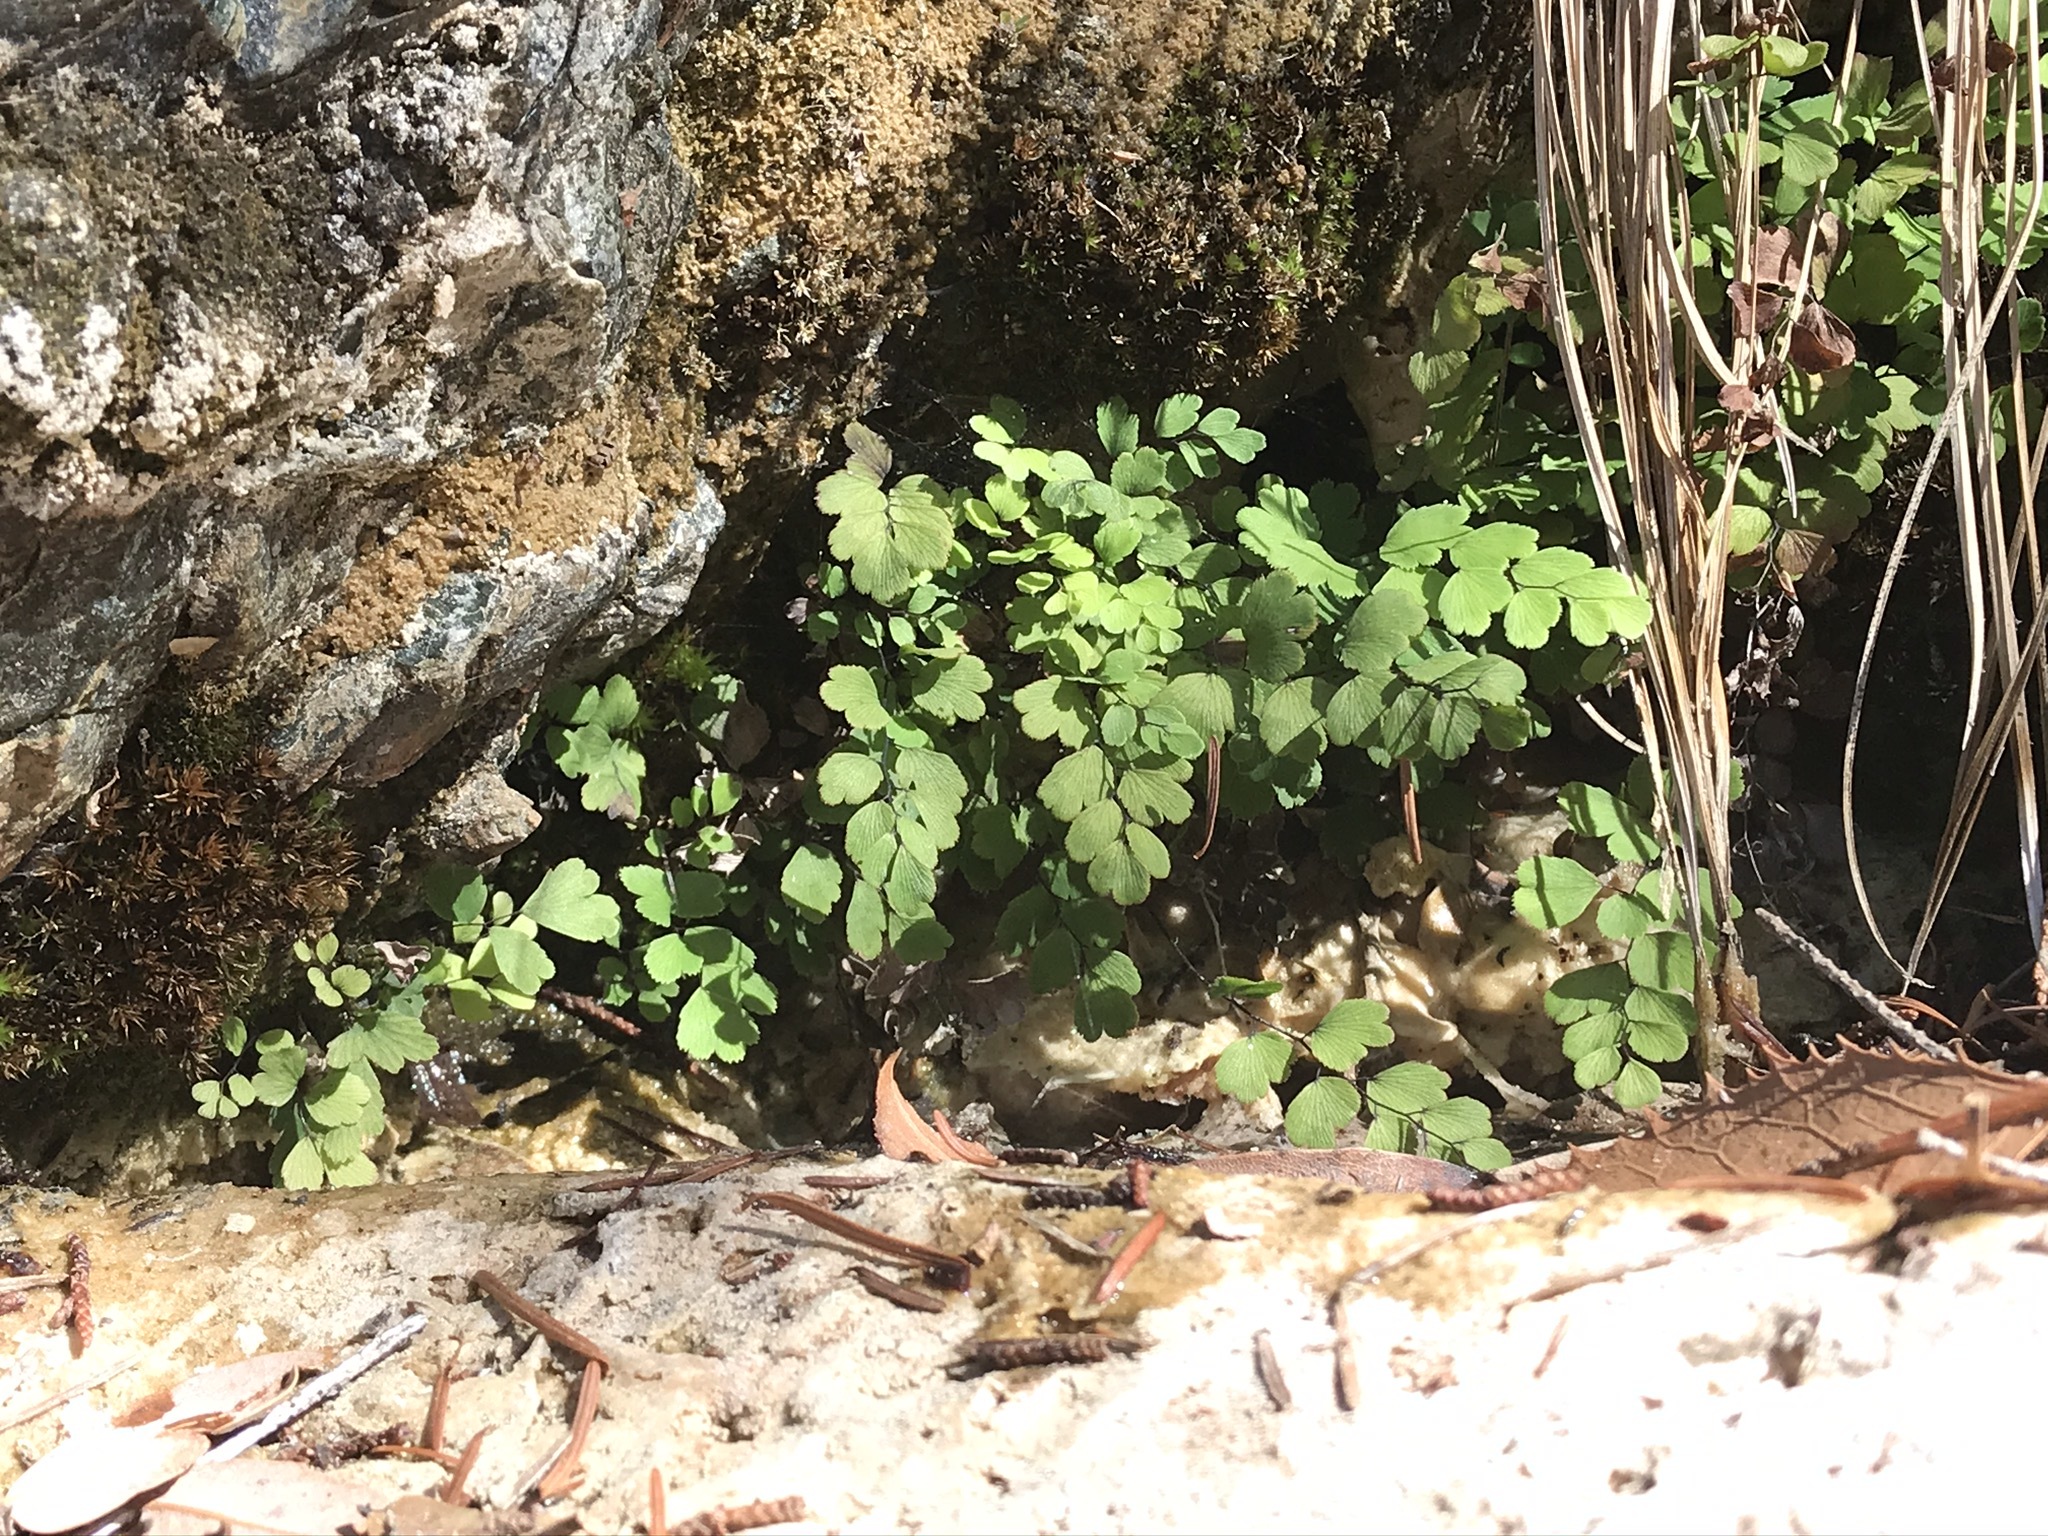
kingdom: Plantae
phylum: Tracheophyta
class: Polypodiopsida
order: Polypodiales
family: Pteridaceae
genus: Adiantum
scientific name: Adiantum capillus-veneris
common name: Maidenhair fern
